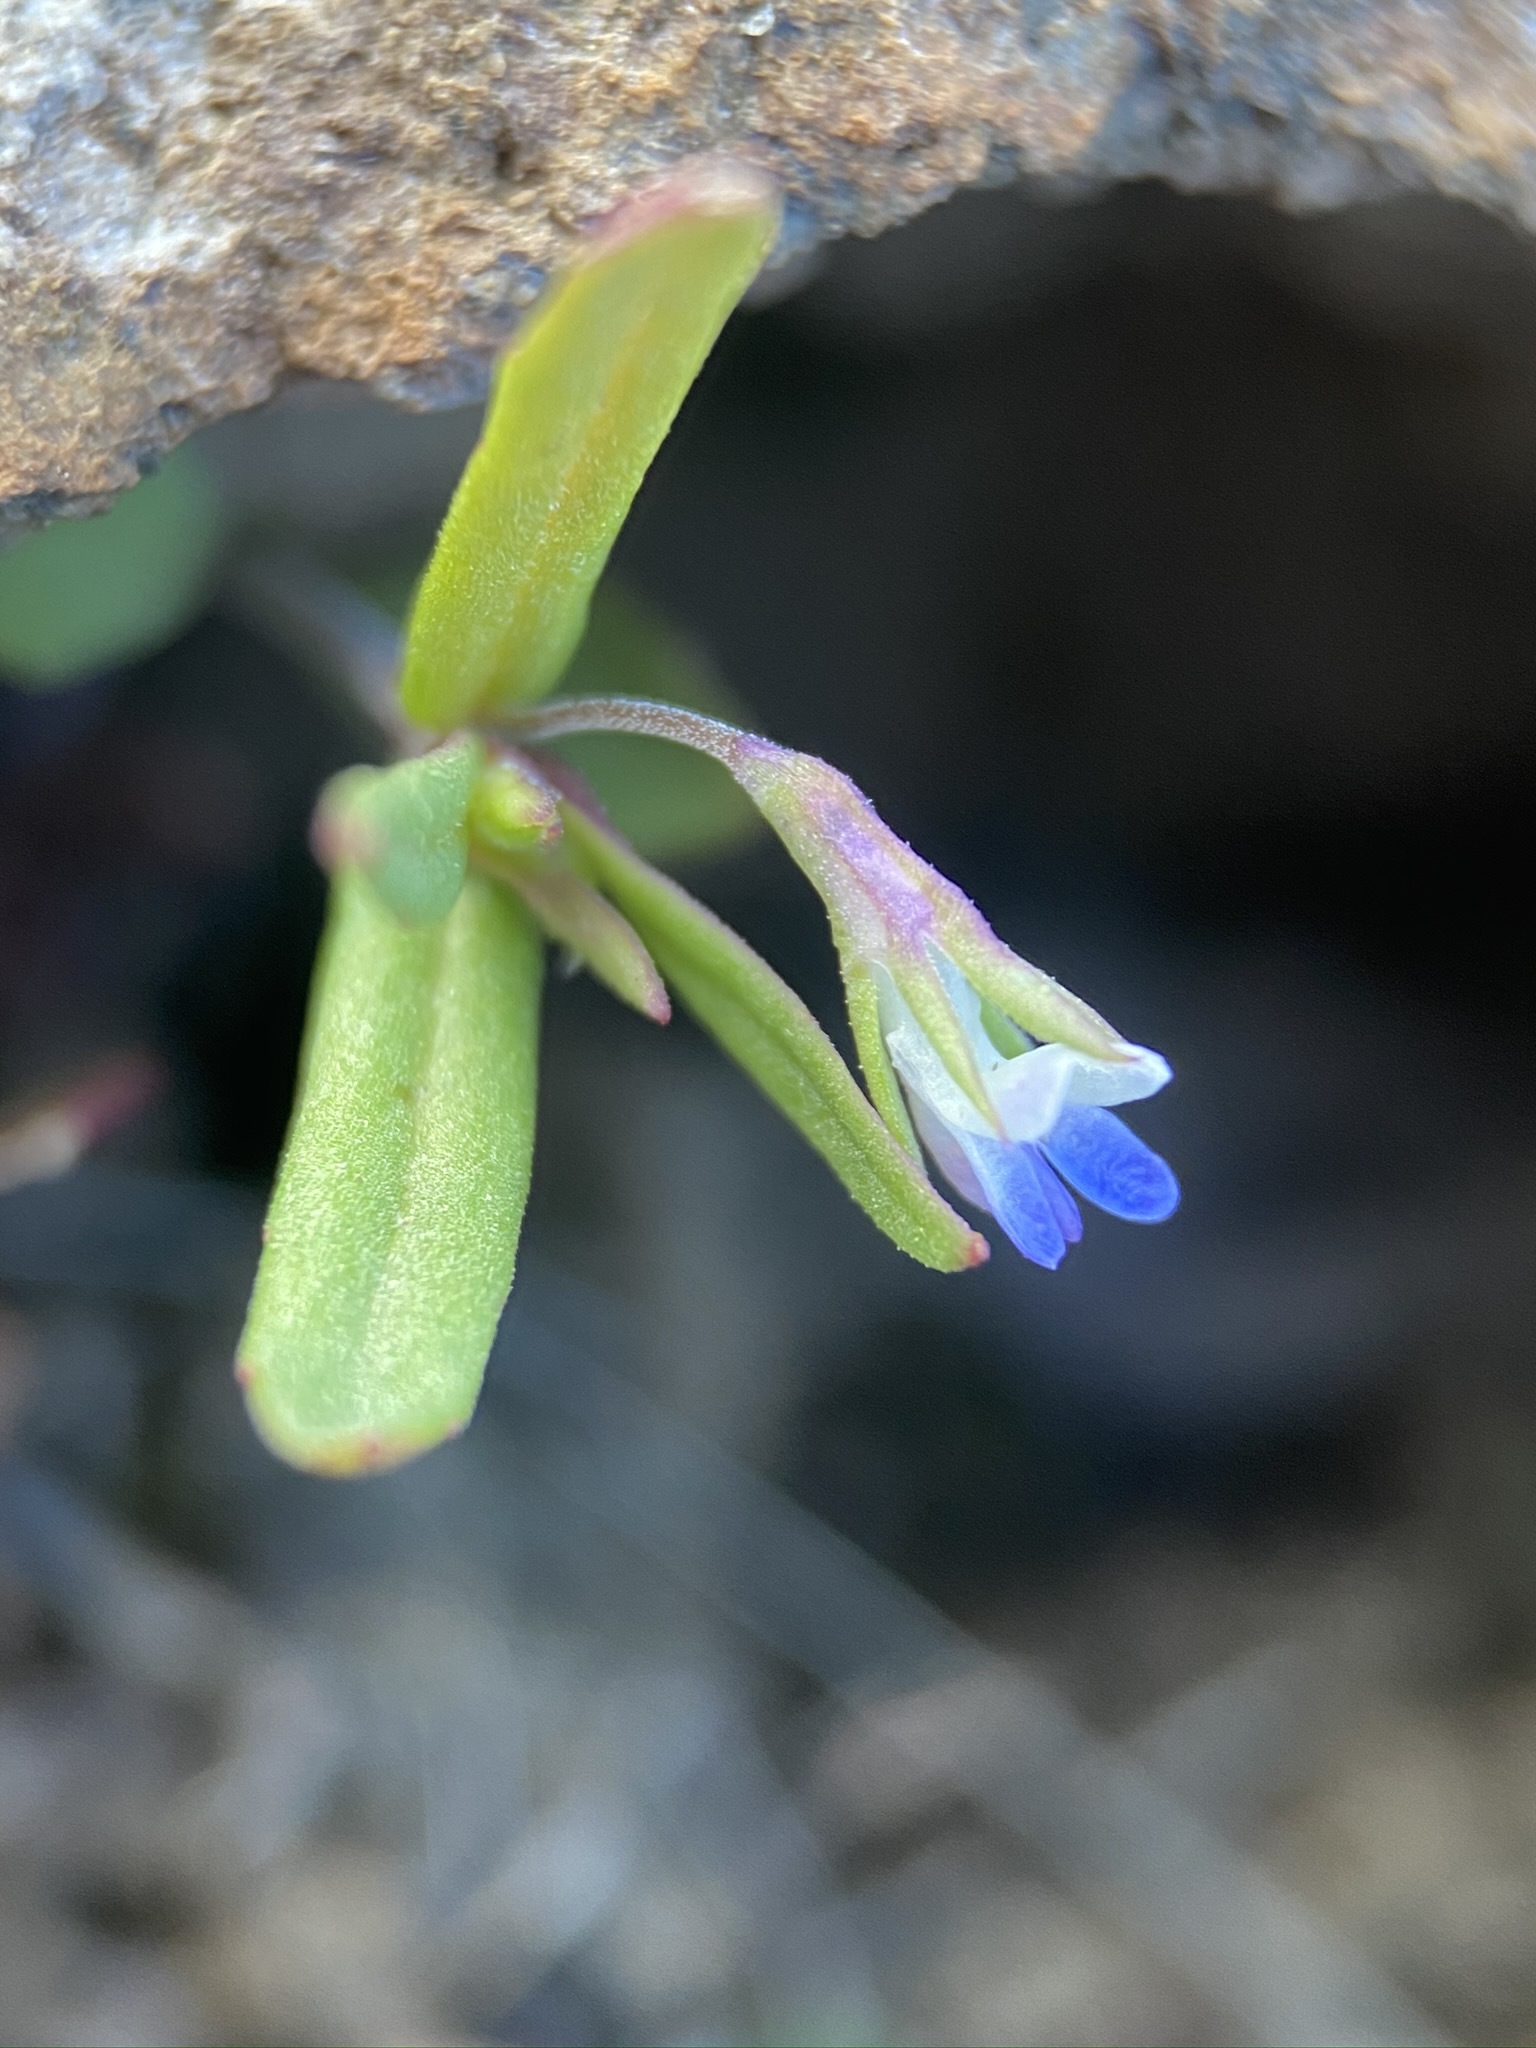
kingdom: Plantae
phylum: Tracheophyta
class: Magnoliopsida
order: Lamiales
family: Plantaginaceae
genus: Collinsia
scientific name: Collinsia parviflora
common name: Blue-lips
